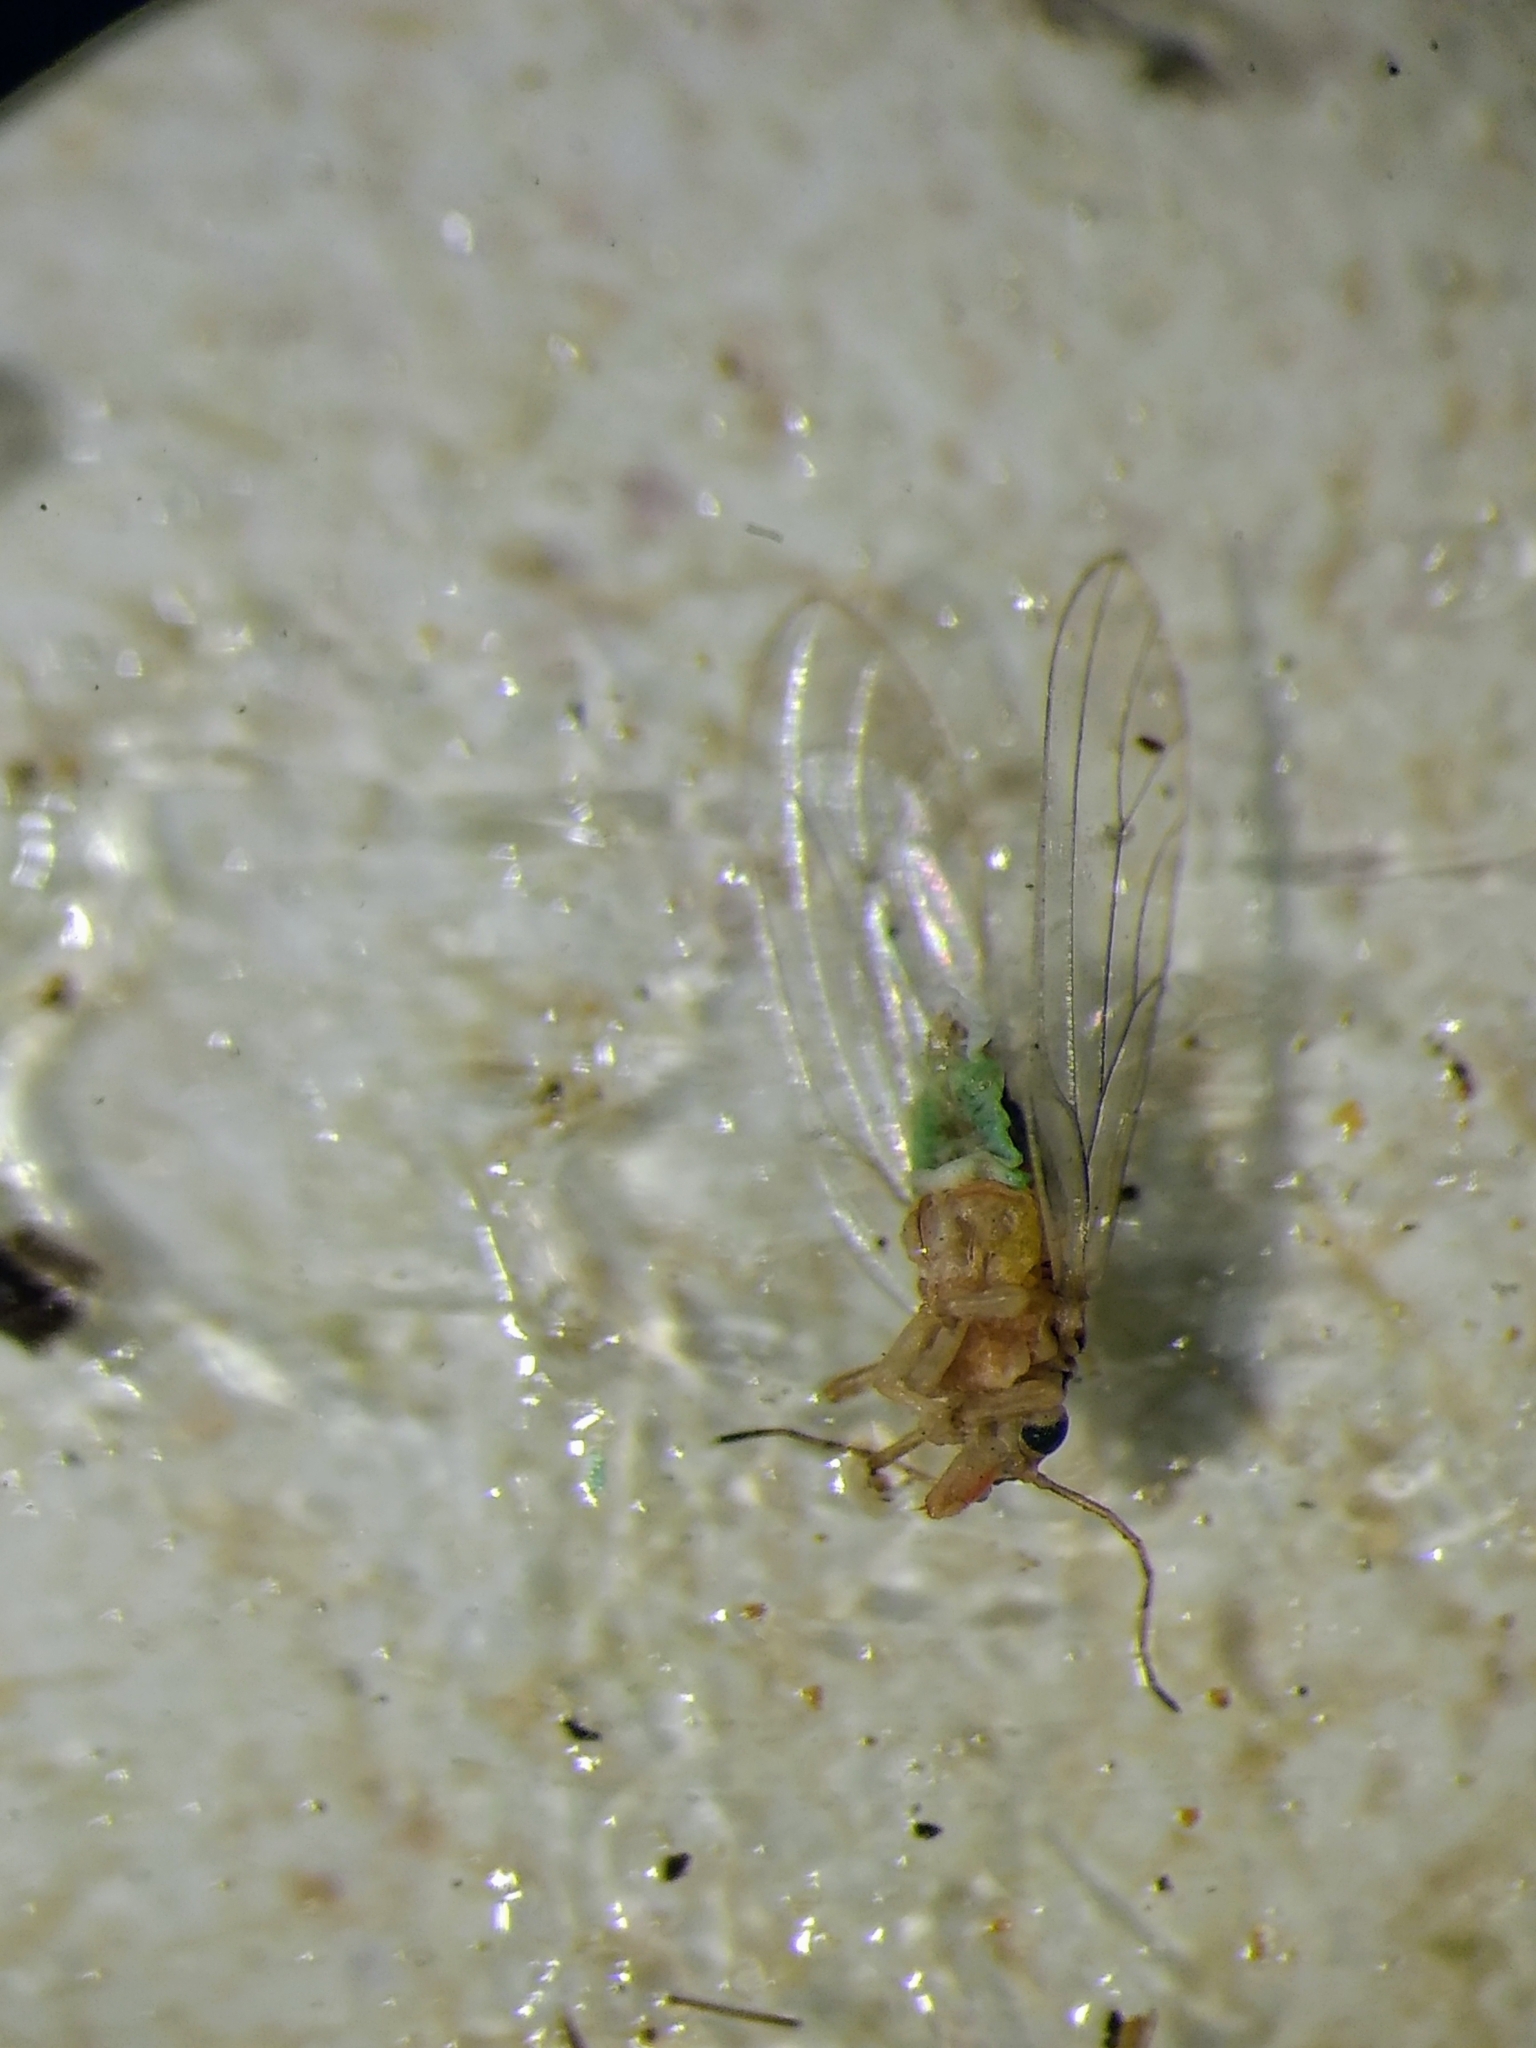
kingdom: Animalia
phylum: Arthropoda
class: Insecta
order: Hemiptera
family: Aphalaridae
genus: Glycaspis
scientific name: Glycaspis brimblecombei
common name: Red gum lerp psyllid
